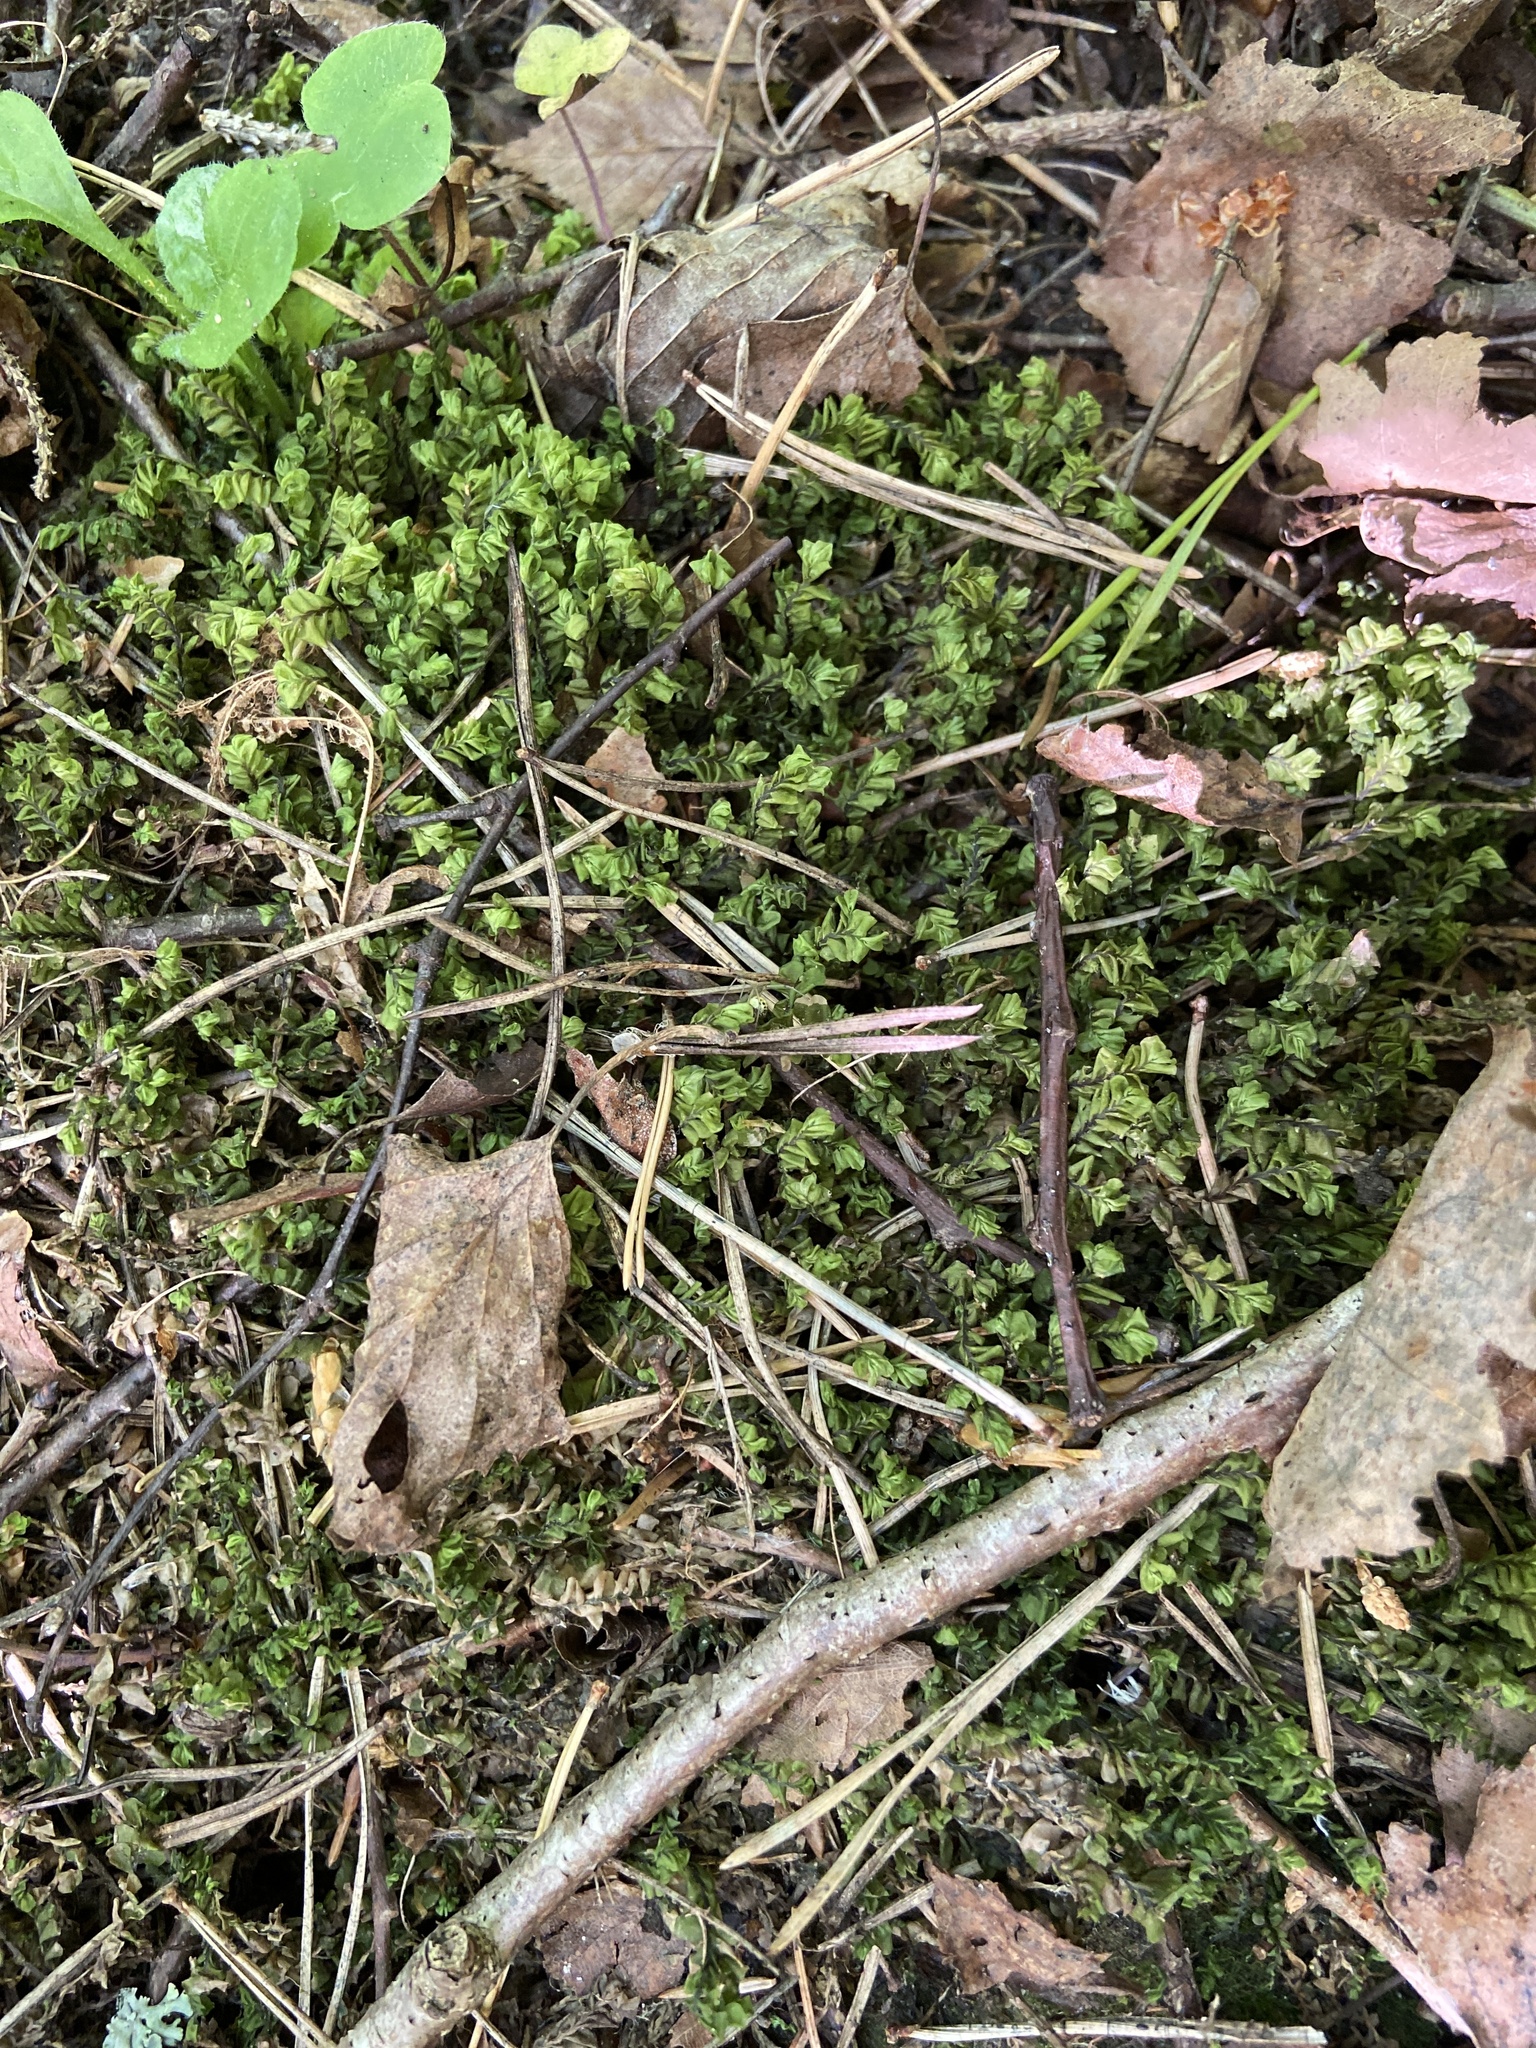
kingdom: Plantae
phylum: Marchantiophyta
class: Jungermanniopsida
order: Jungermanniales
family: Plagiochilaceae
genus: Plagiochila
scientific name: Plagiochila asplenioides
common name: Greater featherwort
